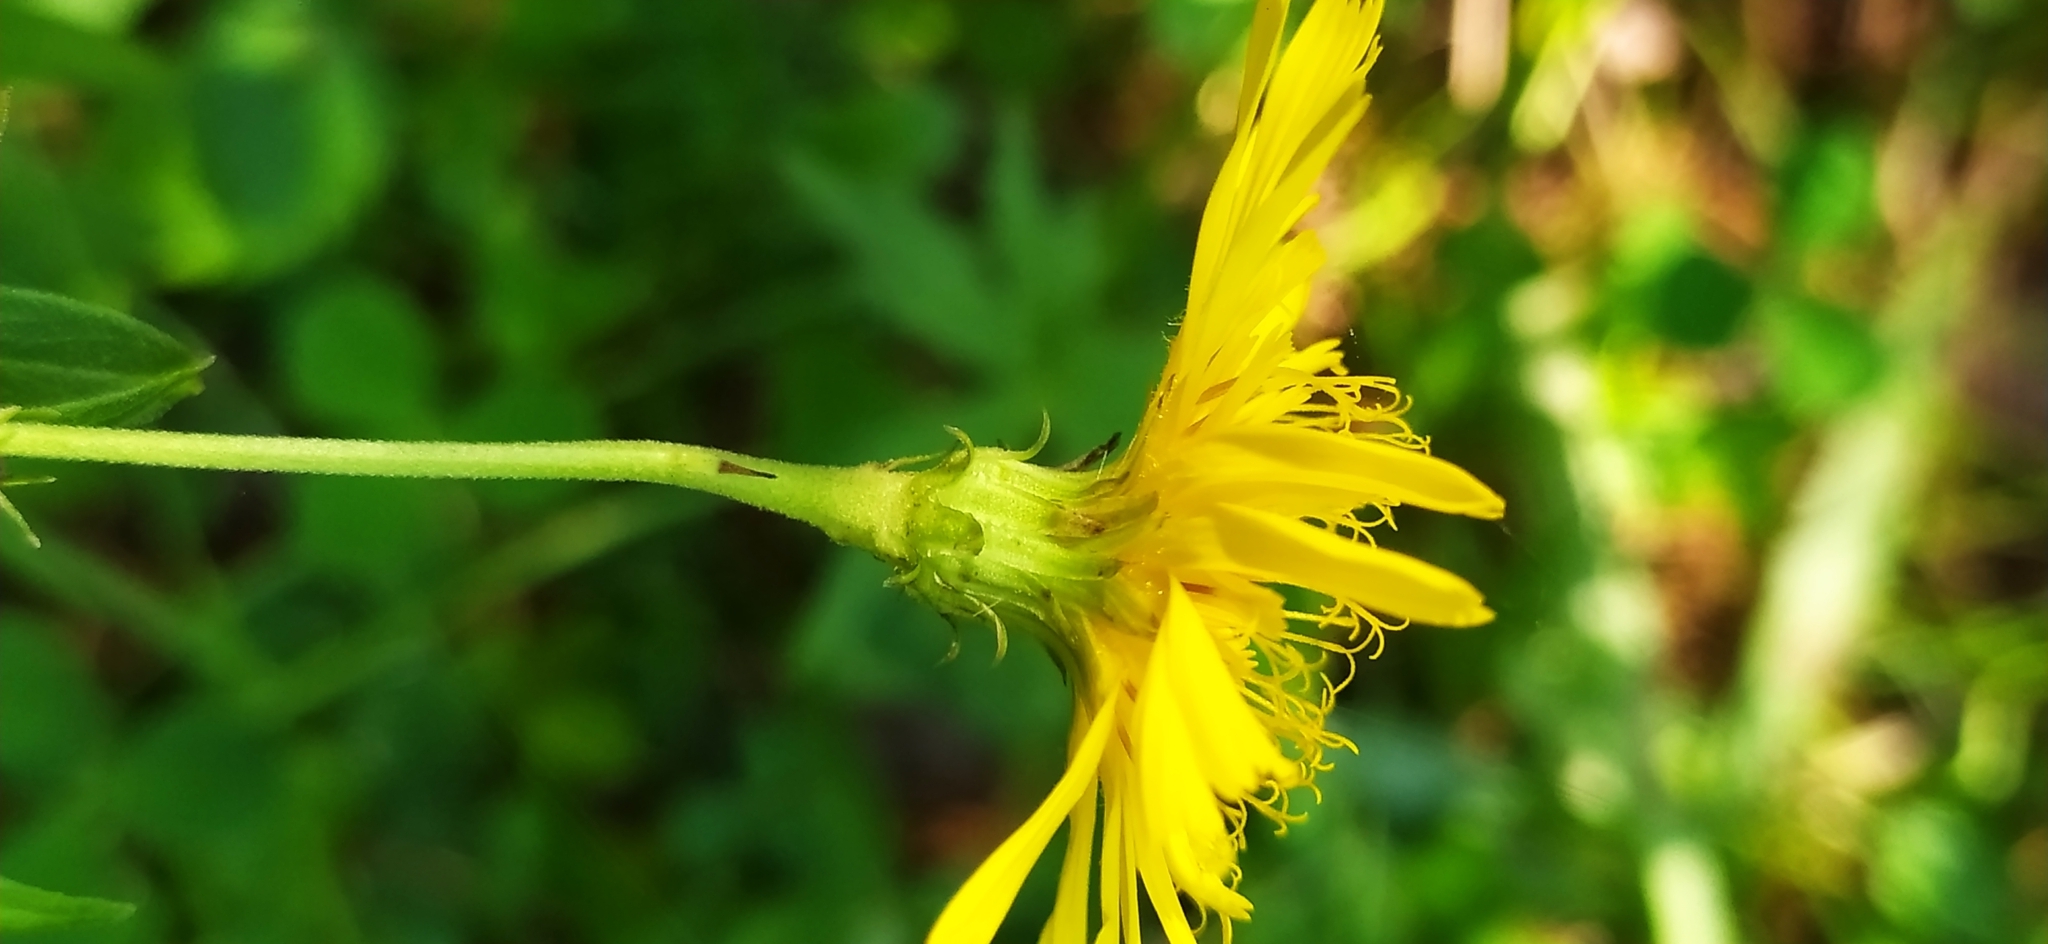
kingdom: Plantae
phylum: Tracheophyta
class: Magnoliopsida
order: Asterales
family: Asteraceae
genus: Hieracium
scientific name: Hieracium umbellatum
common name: Northern hawkweed
